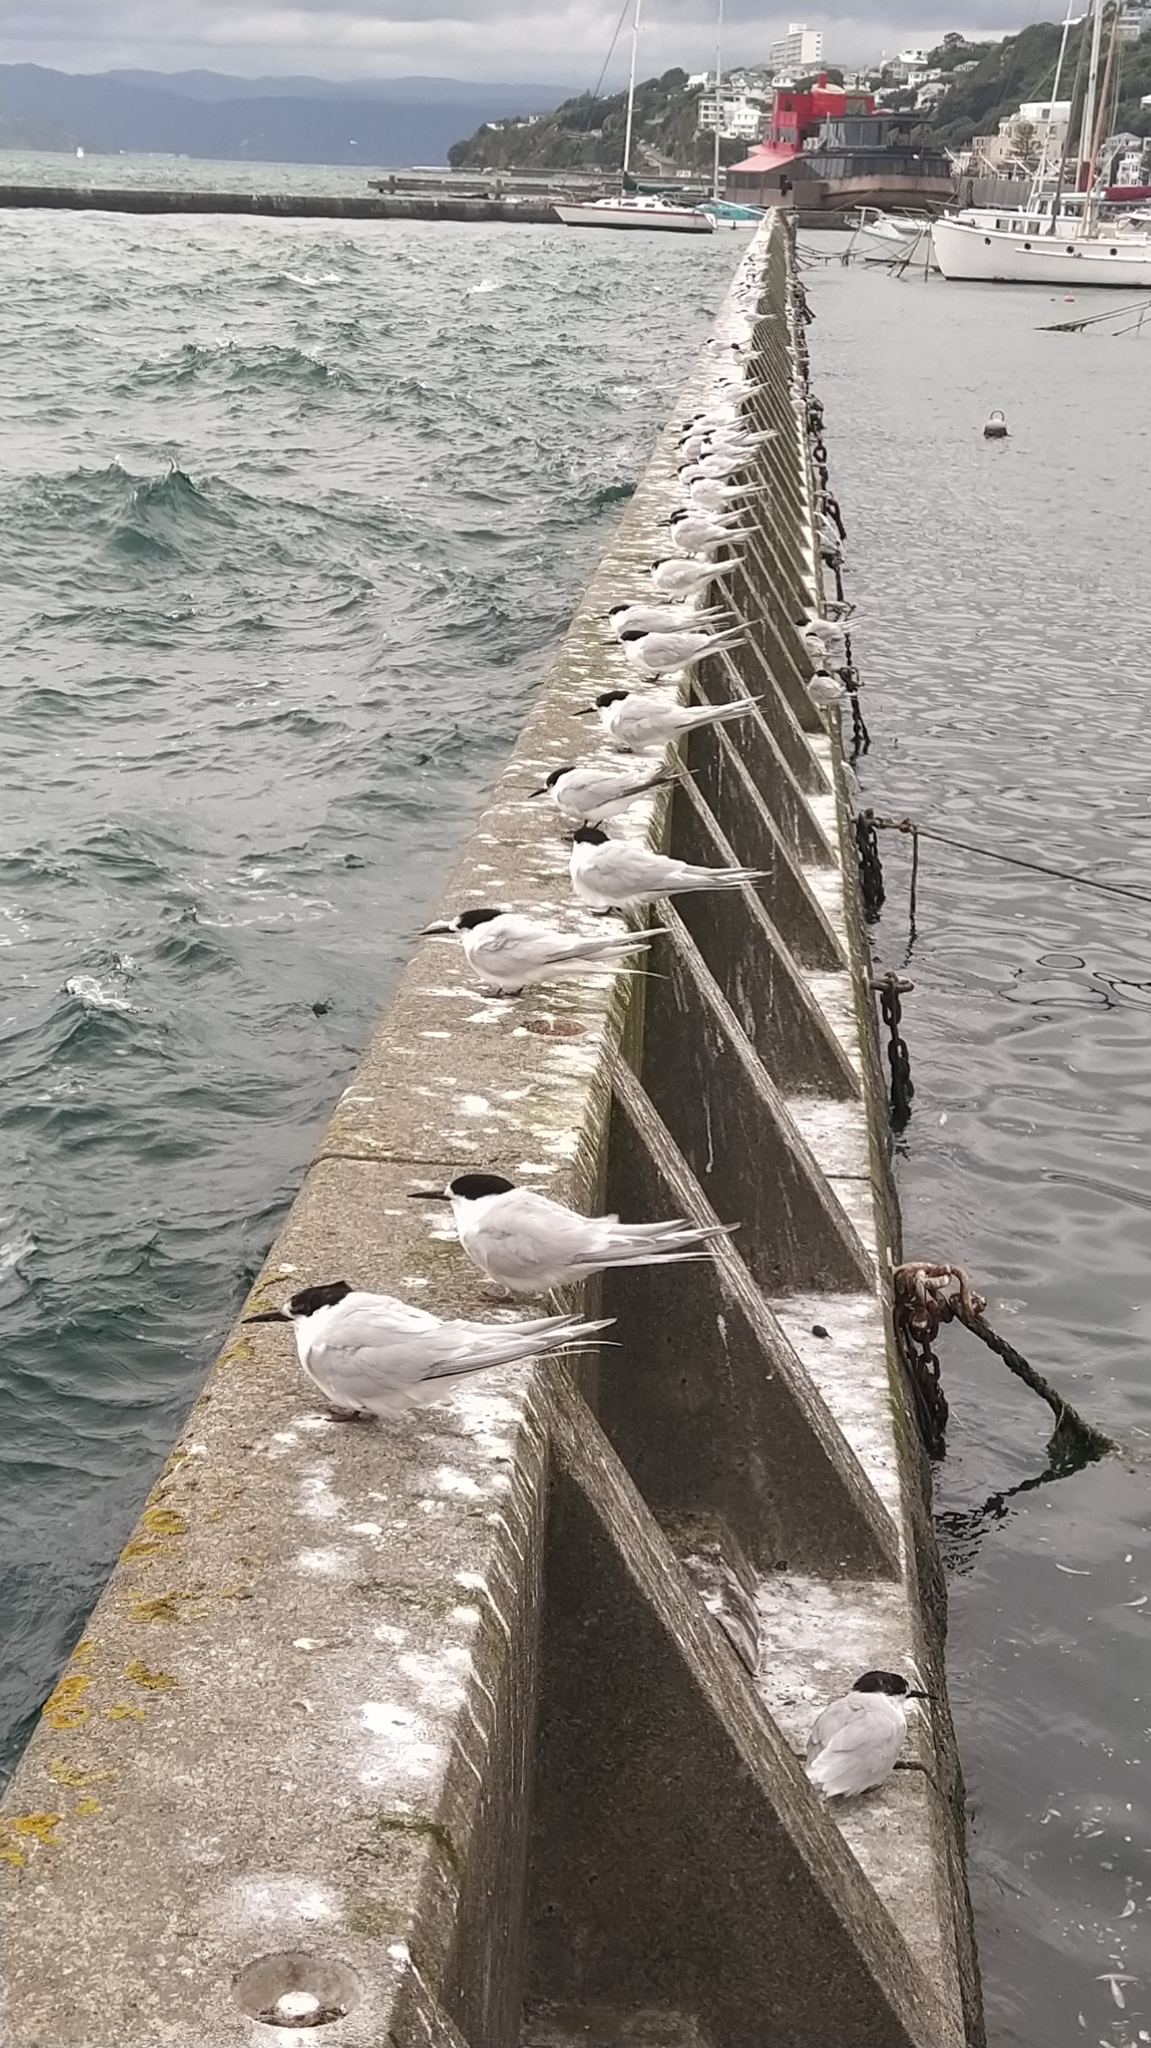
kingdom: Animalia
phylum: Chordata
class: Aves
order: Charadriiformes
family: Laridae
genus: Sterna
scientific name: Sterna striata
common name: White-fronted tern
